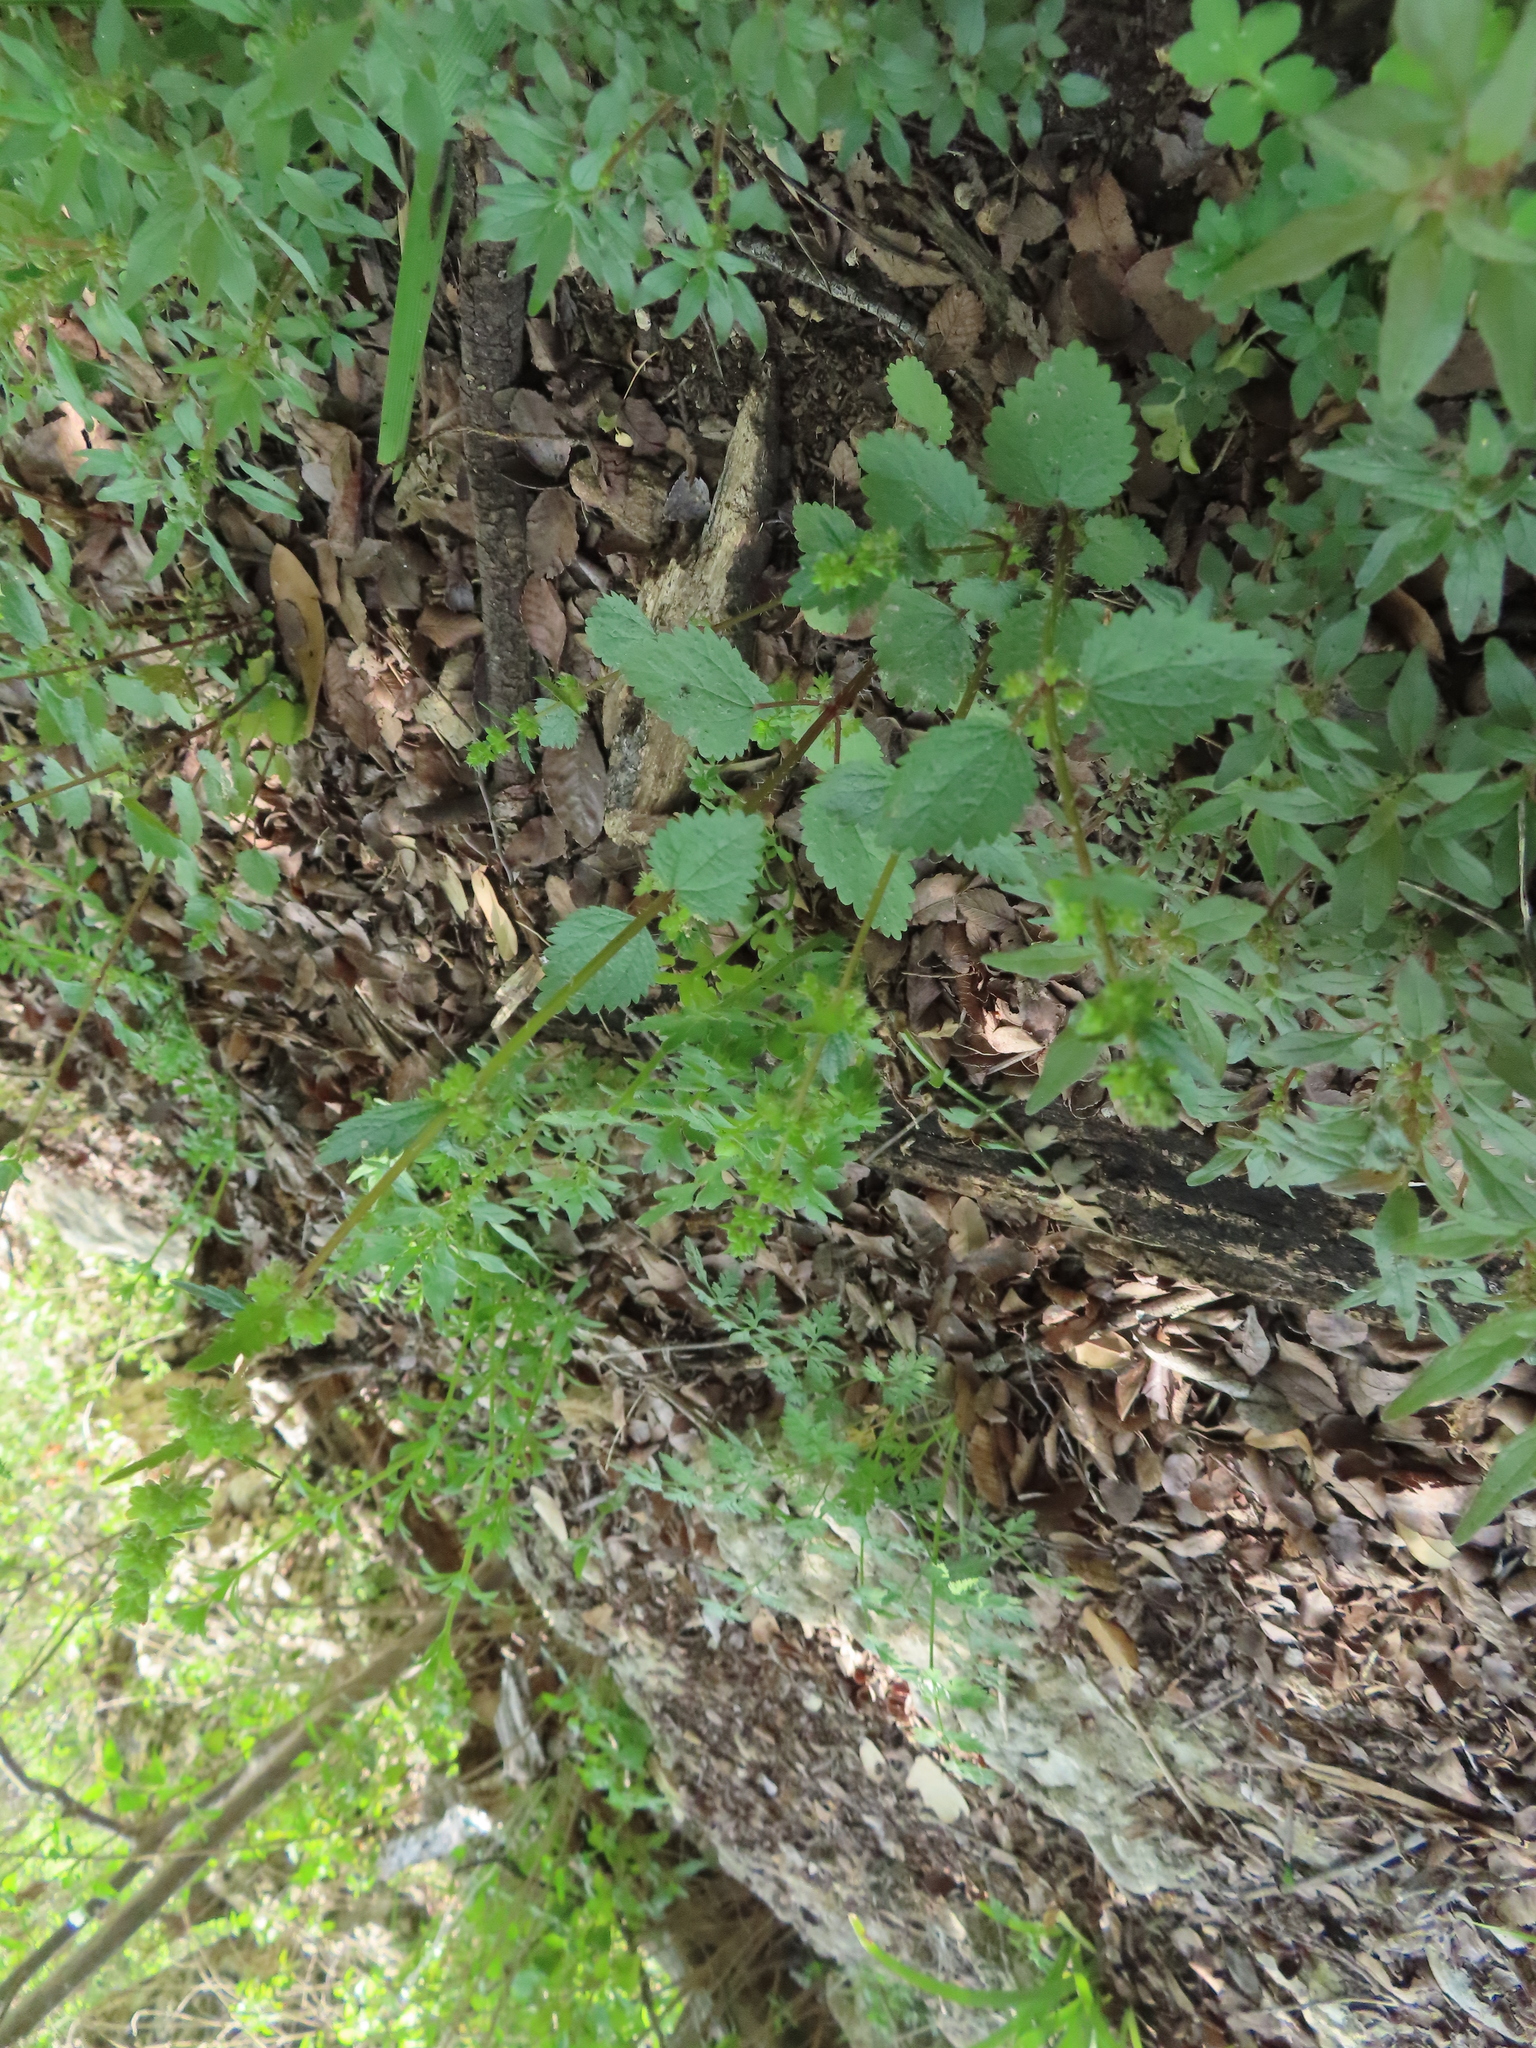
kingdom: Plantae
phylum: Tracheophyta
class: Magnoliopsida
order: Rosales
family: Urticaceae
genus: Urtica
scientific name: Urtica chamaedryoides
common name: Heart-leaf nettle
